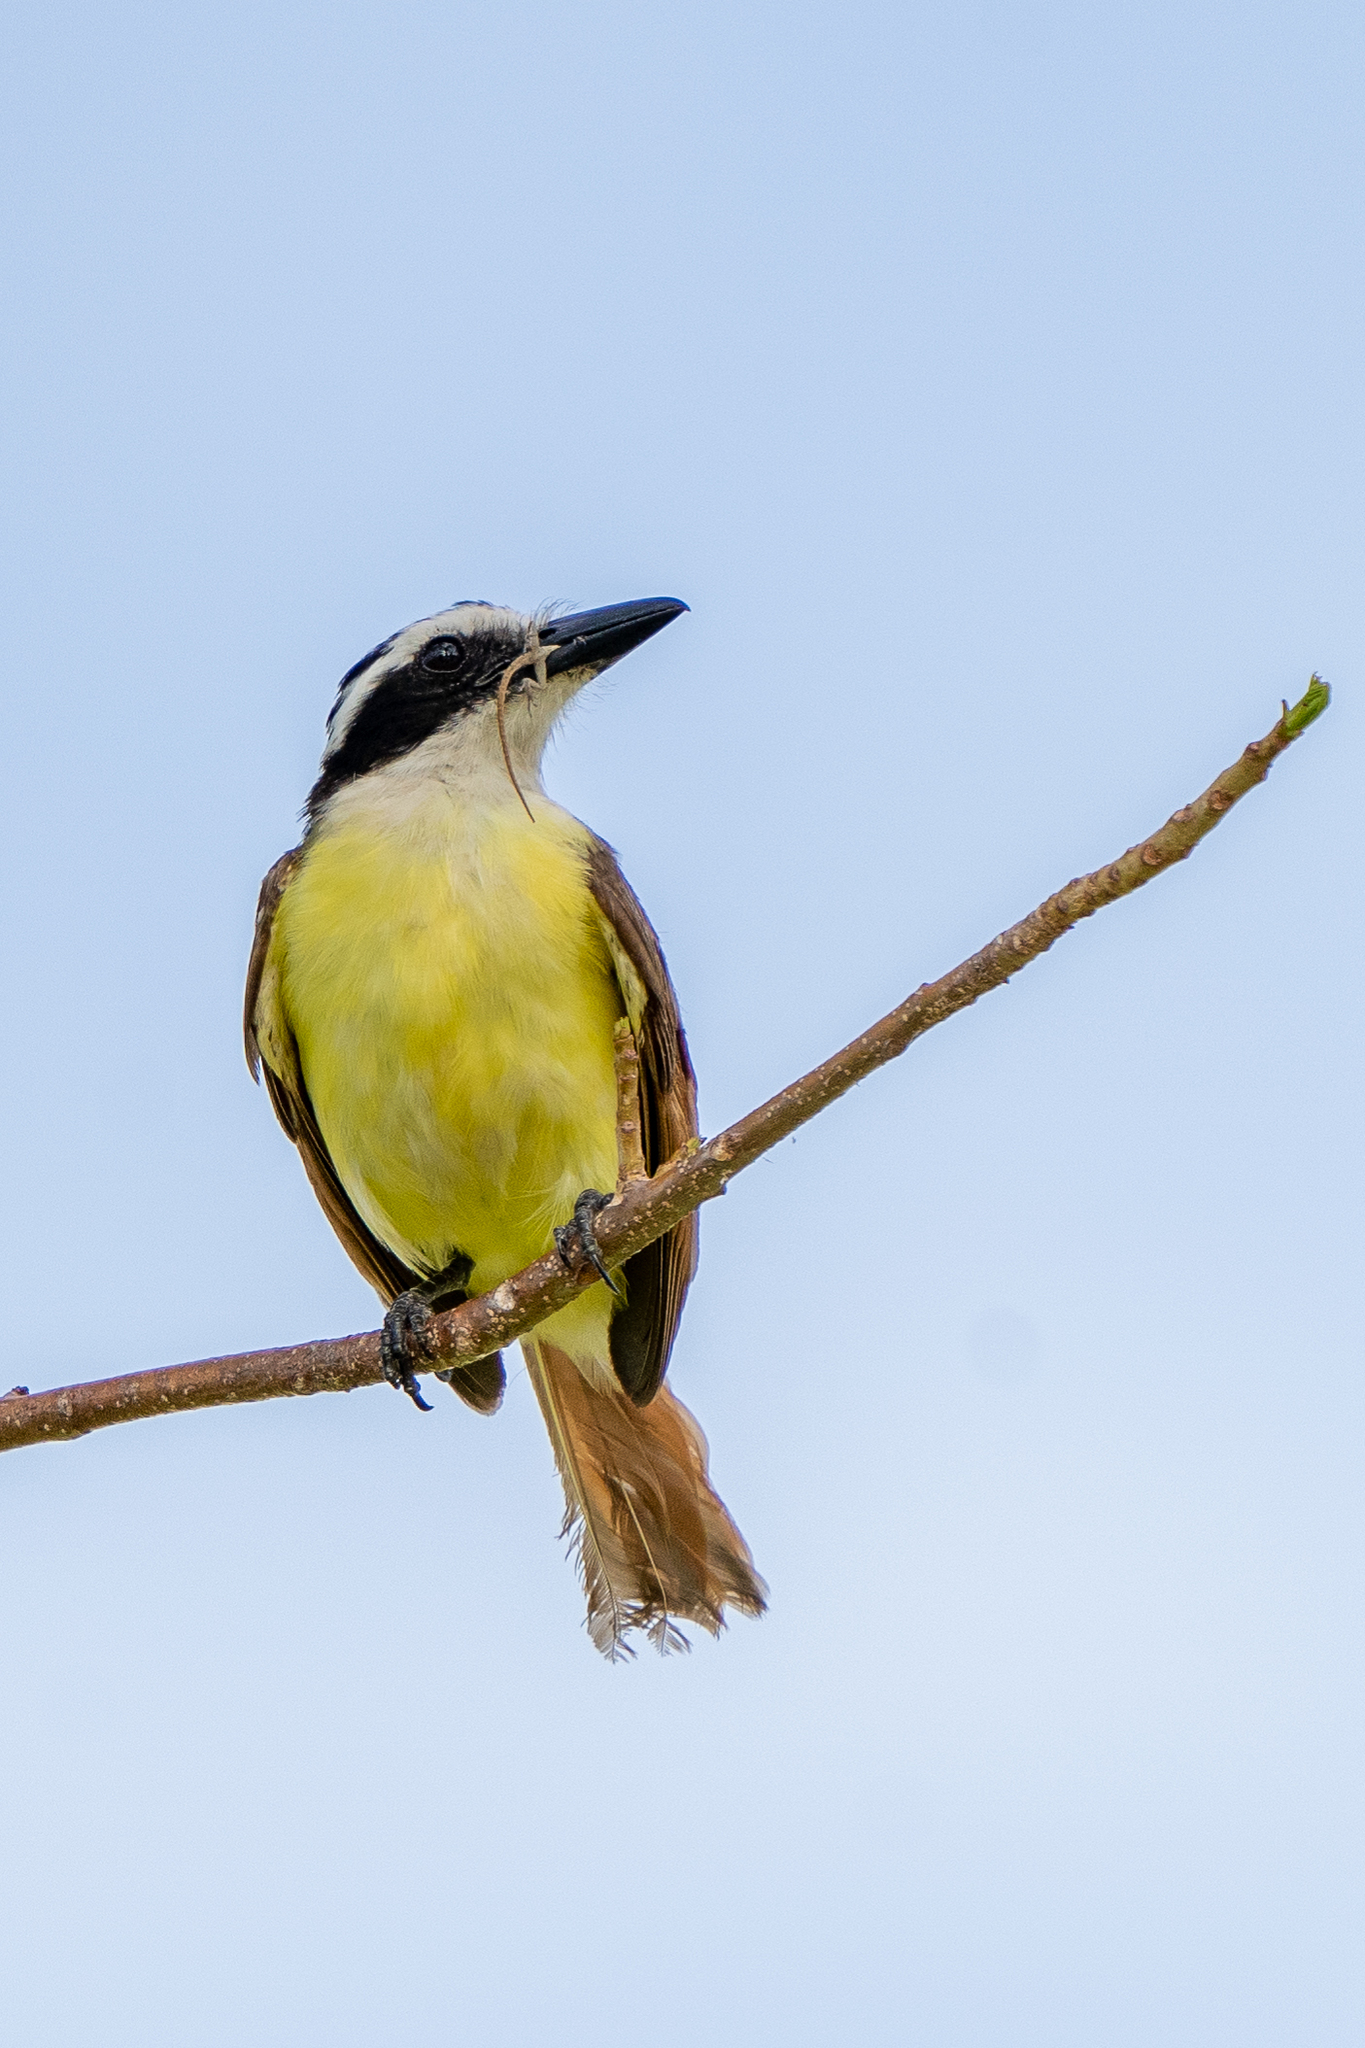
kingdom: Animalia
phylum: Chordata
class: Aves
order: Passeriformes
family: Tyrannidae
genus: Pitangus
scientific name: Pitangus sulphuratus
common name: Great kiskadee
